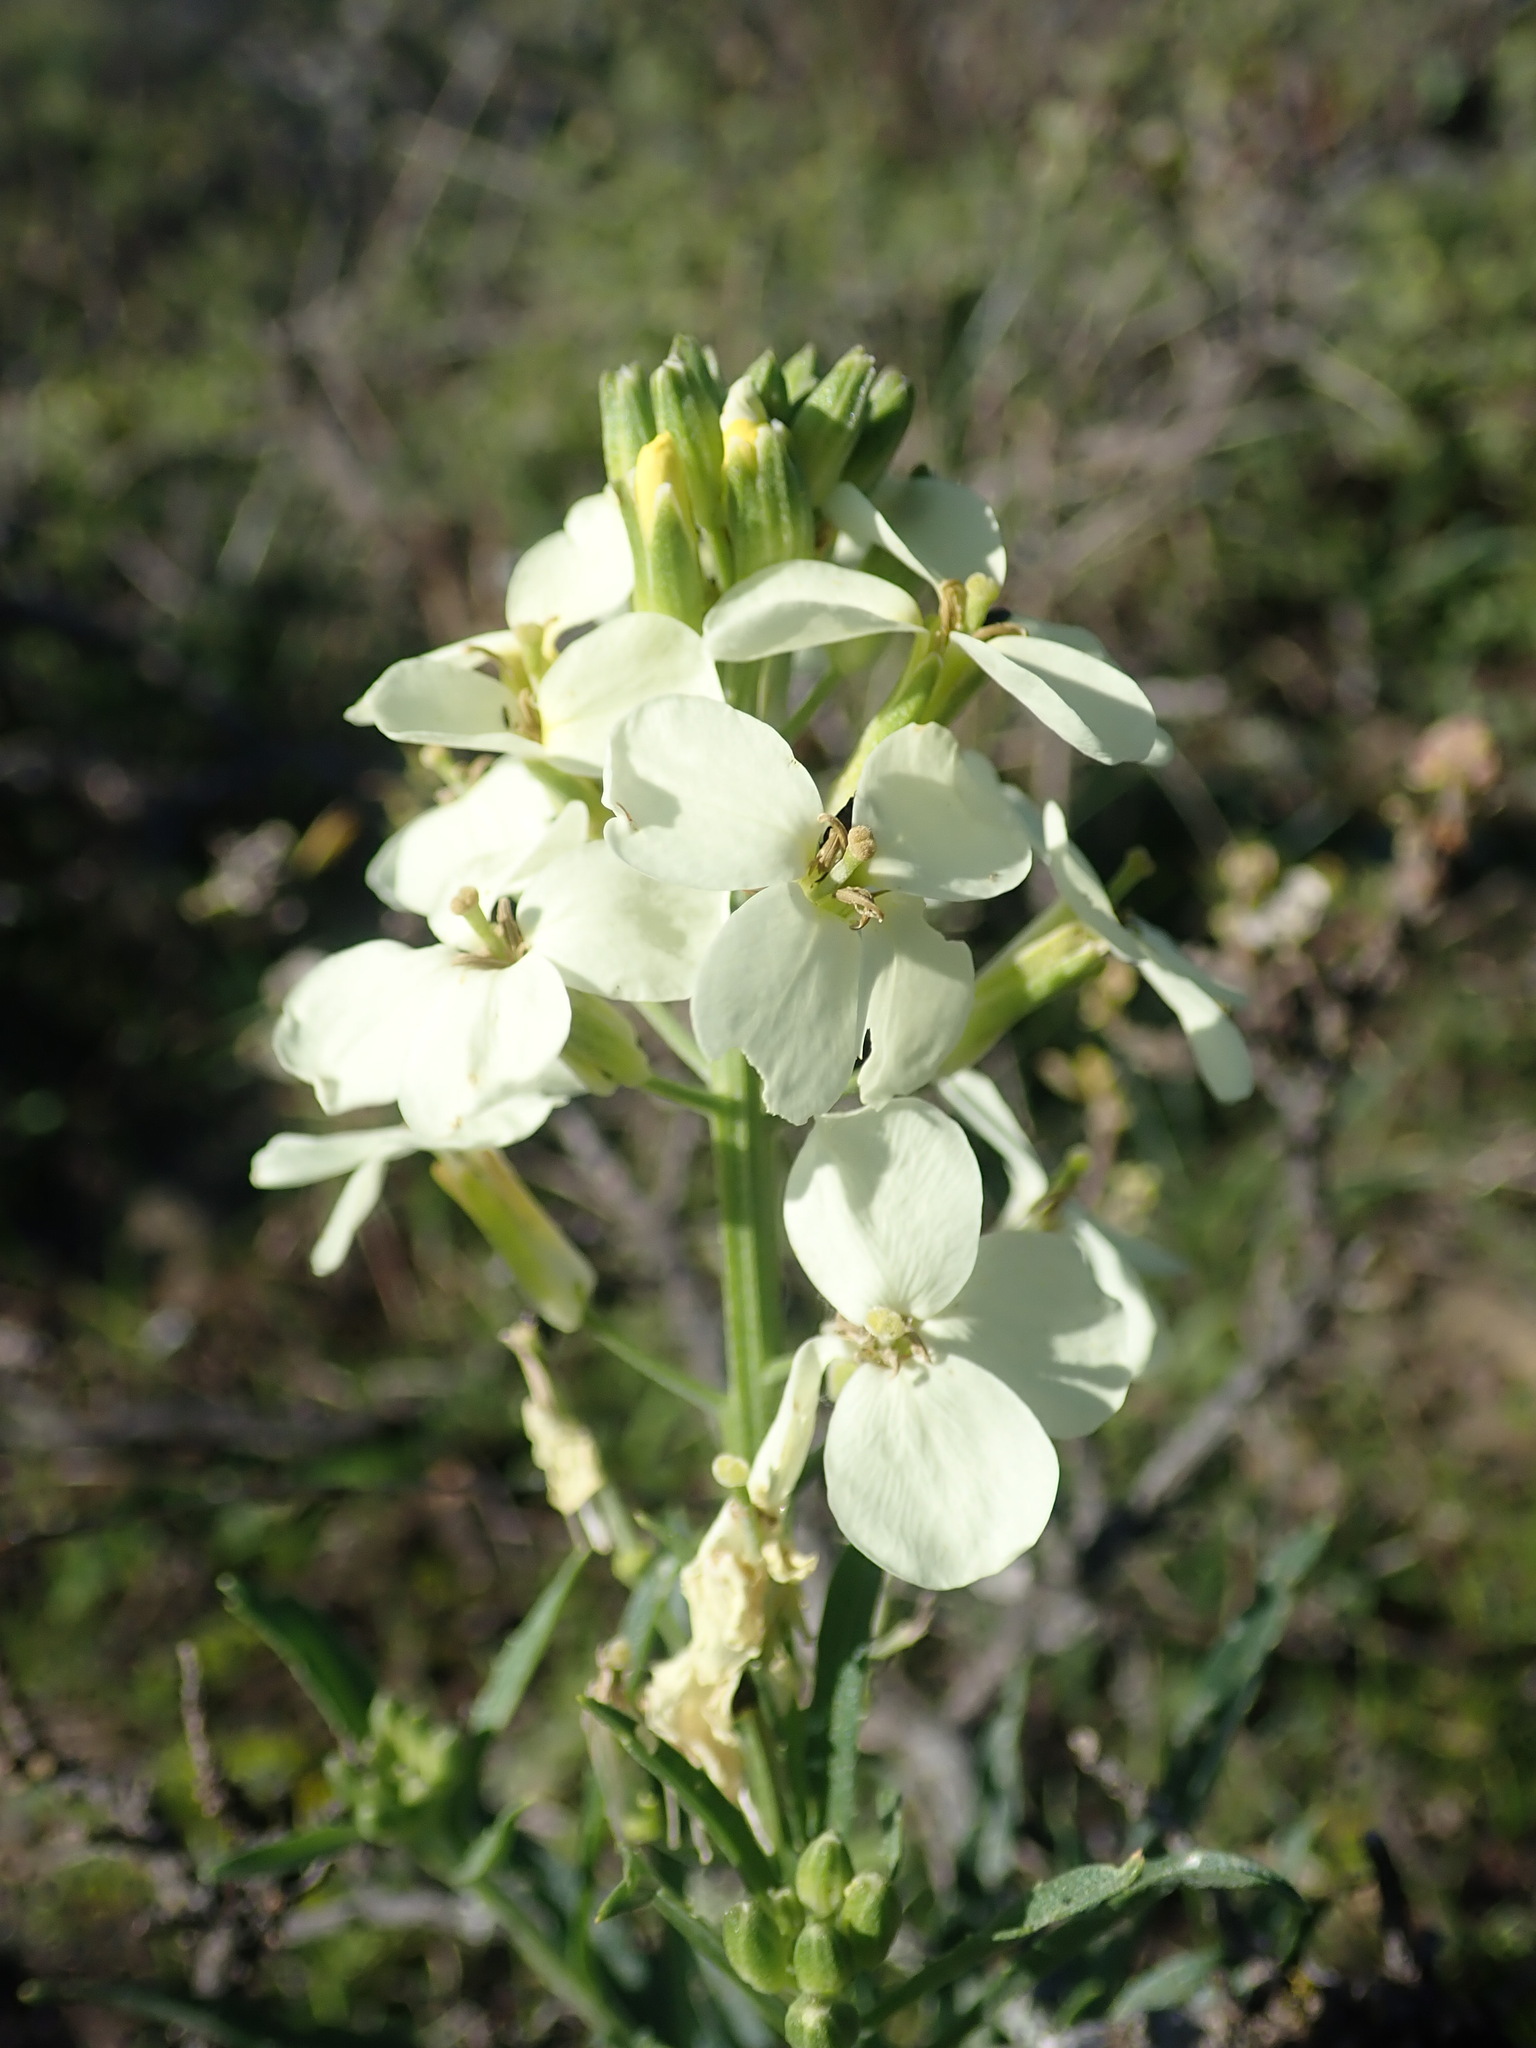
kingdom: Plantae
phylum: Tracheophyta
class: Magnoliopsida
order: Brassicales
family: Brassicaceae
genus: Erysimum
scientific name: Erysimum franciscanum
